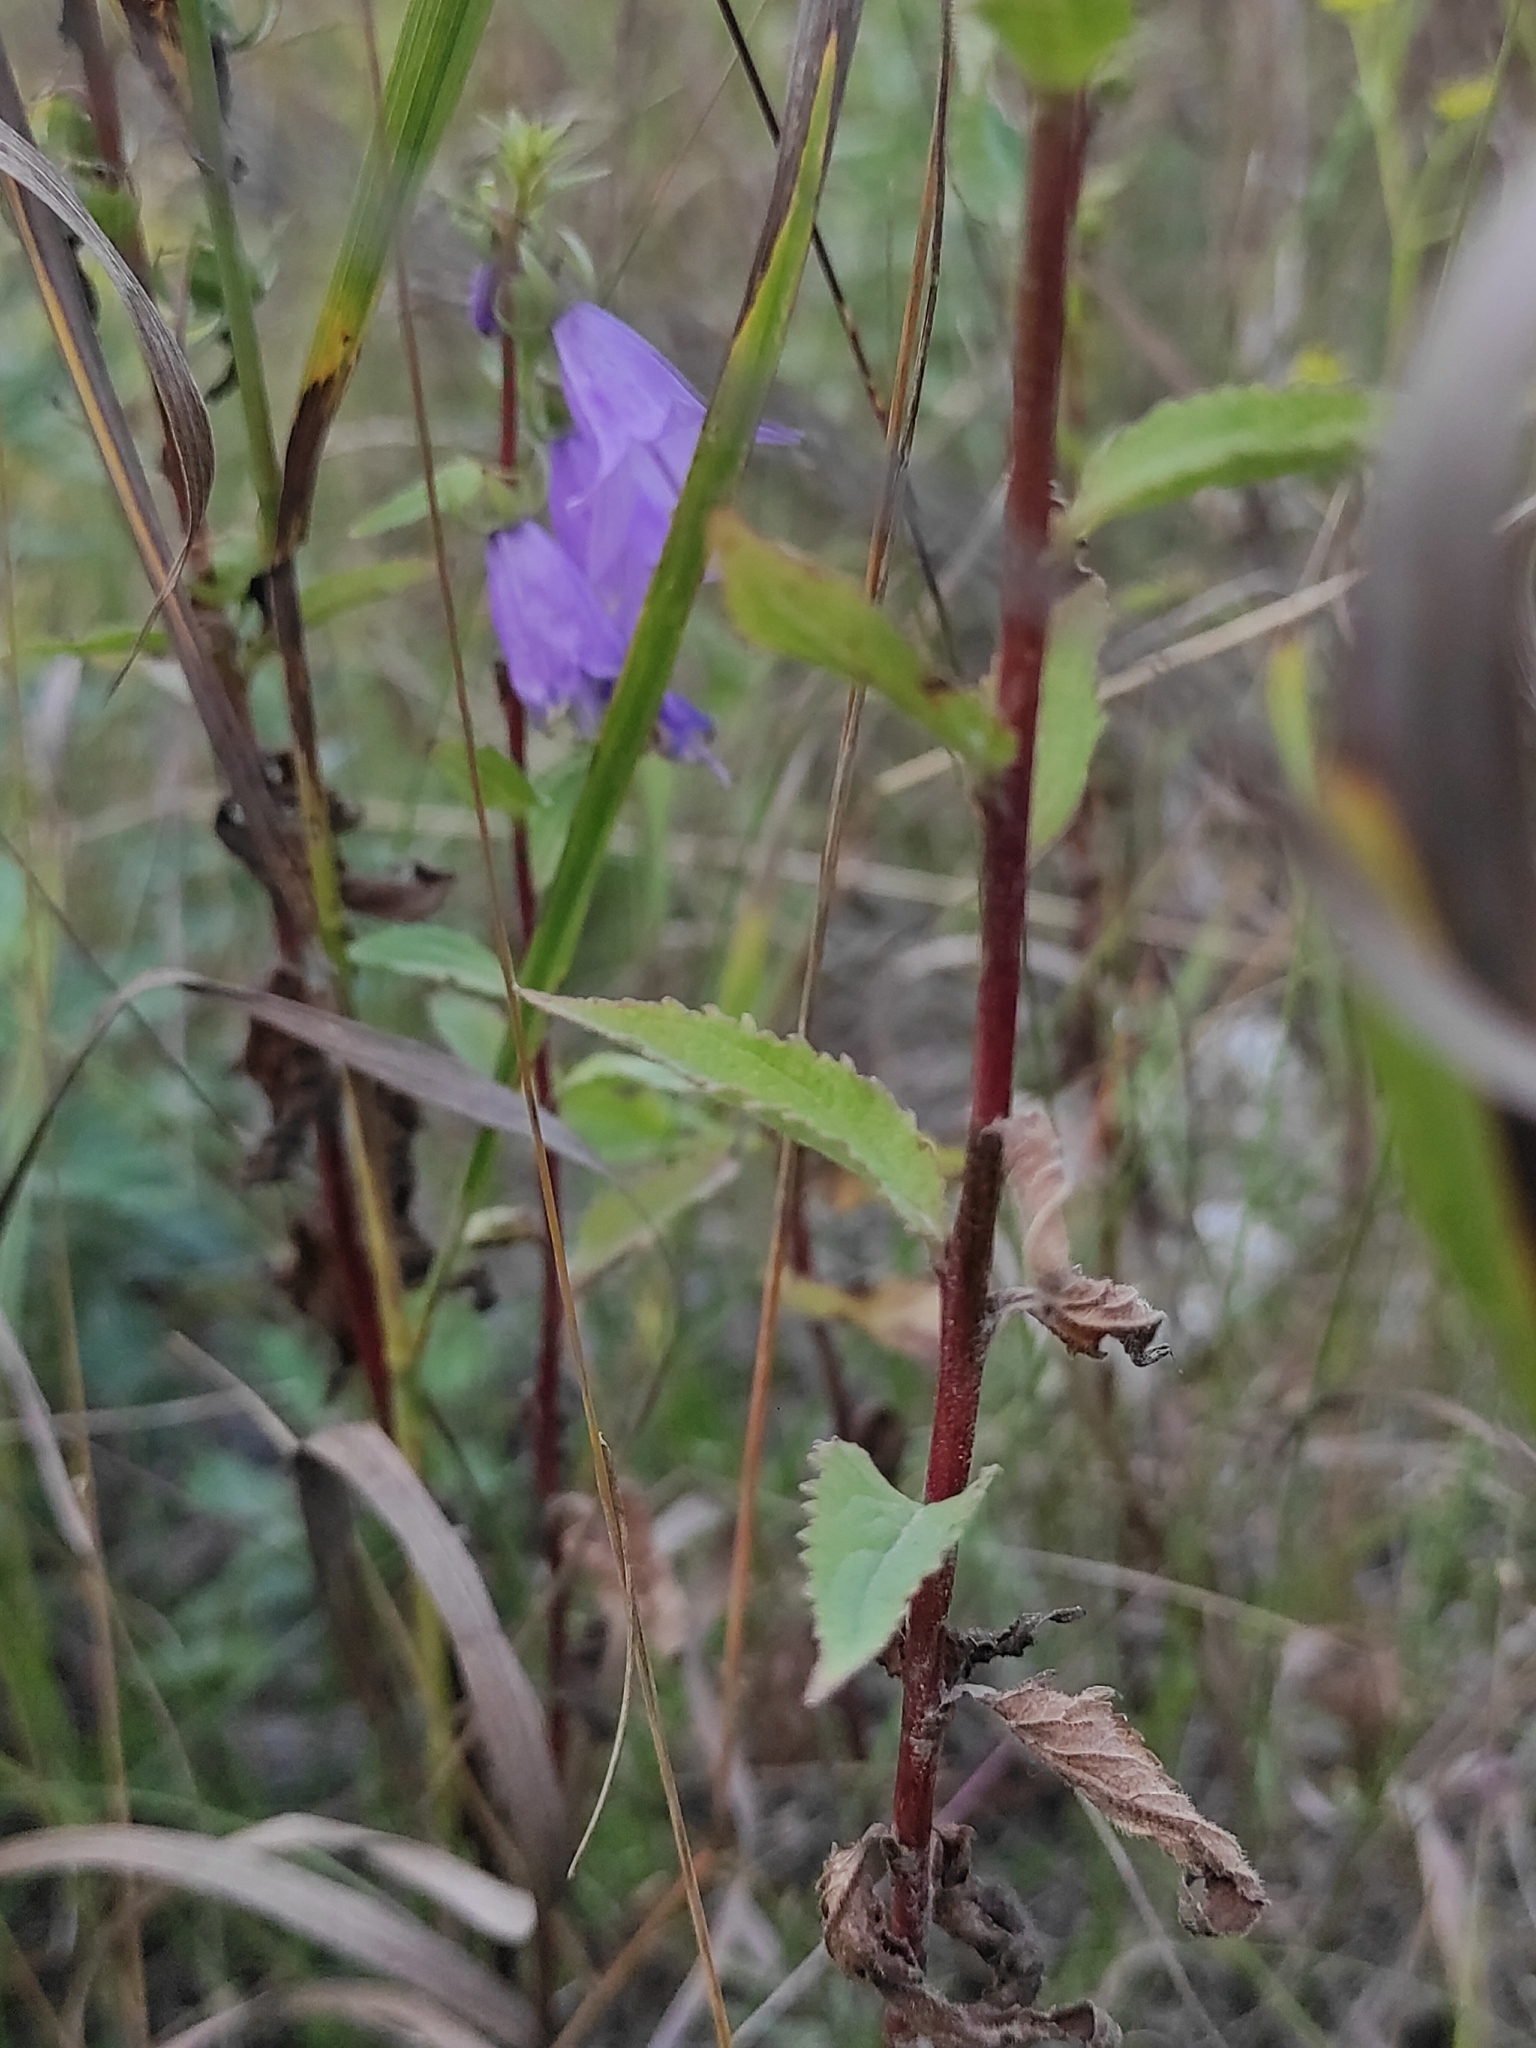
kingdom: Plantae
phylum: Tracheophyta
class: Magnoliopsida
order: Asterales
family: Campanulaceae
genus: Campanula
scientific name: Campanula rapunculoides
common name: Creeping bellflower
